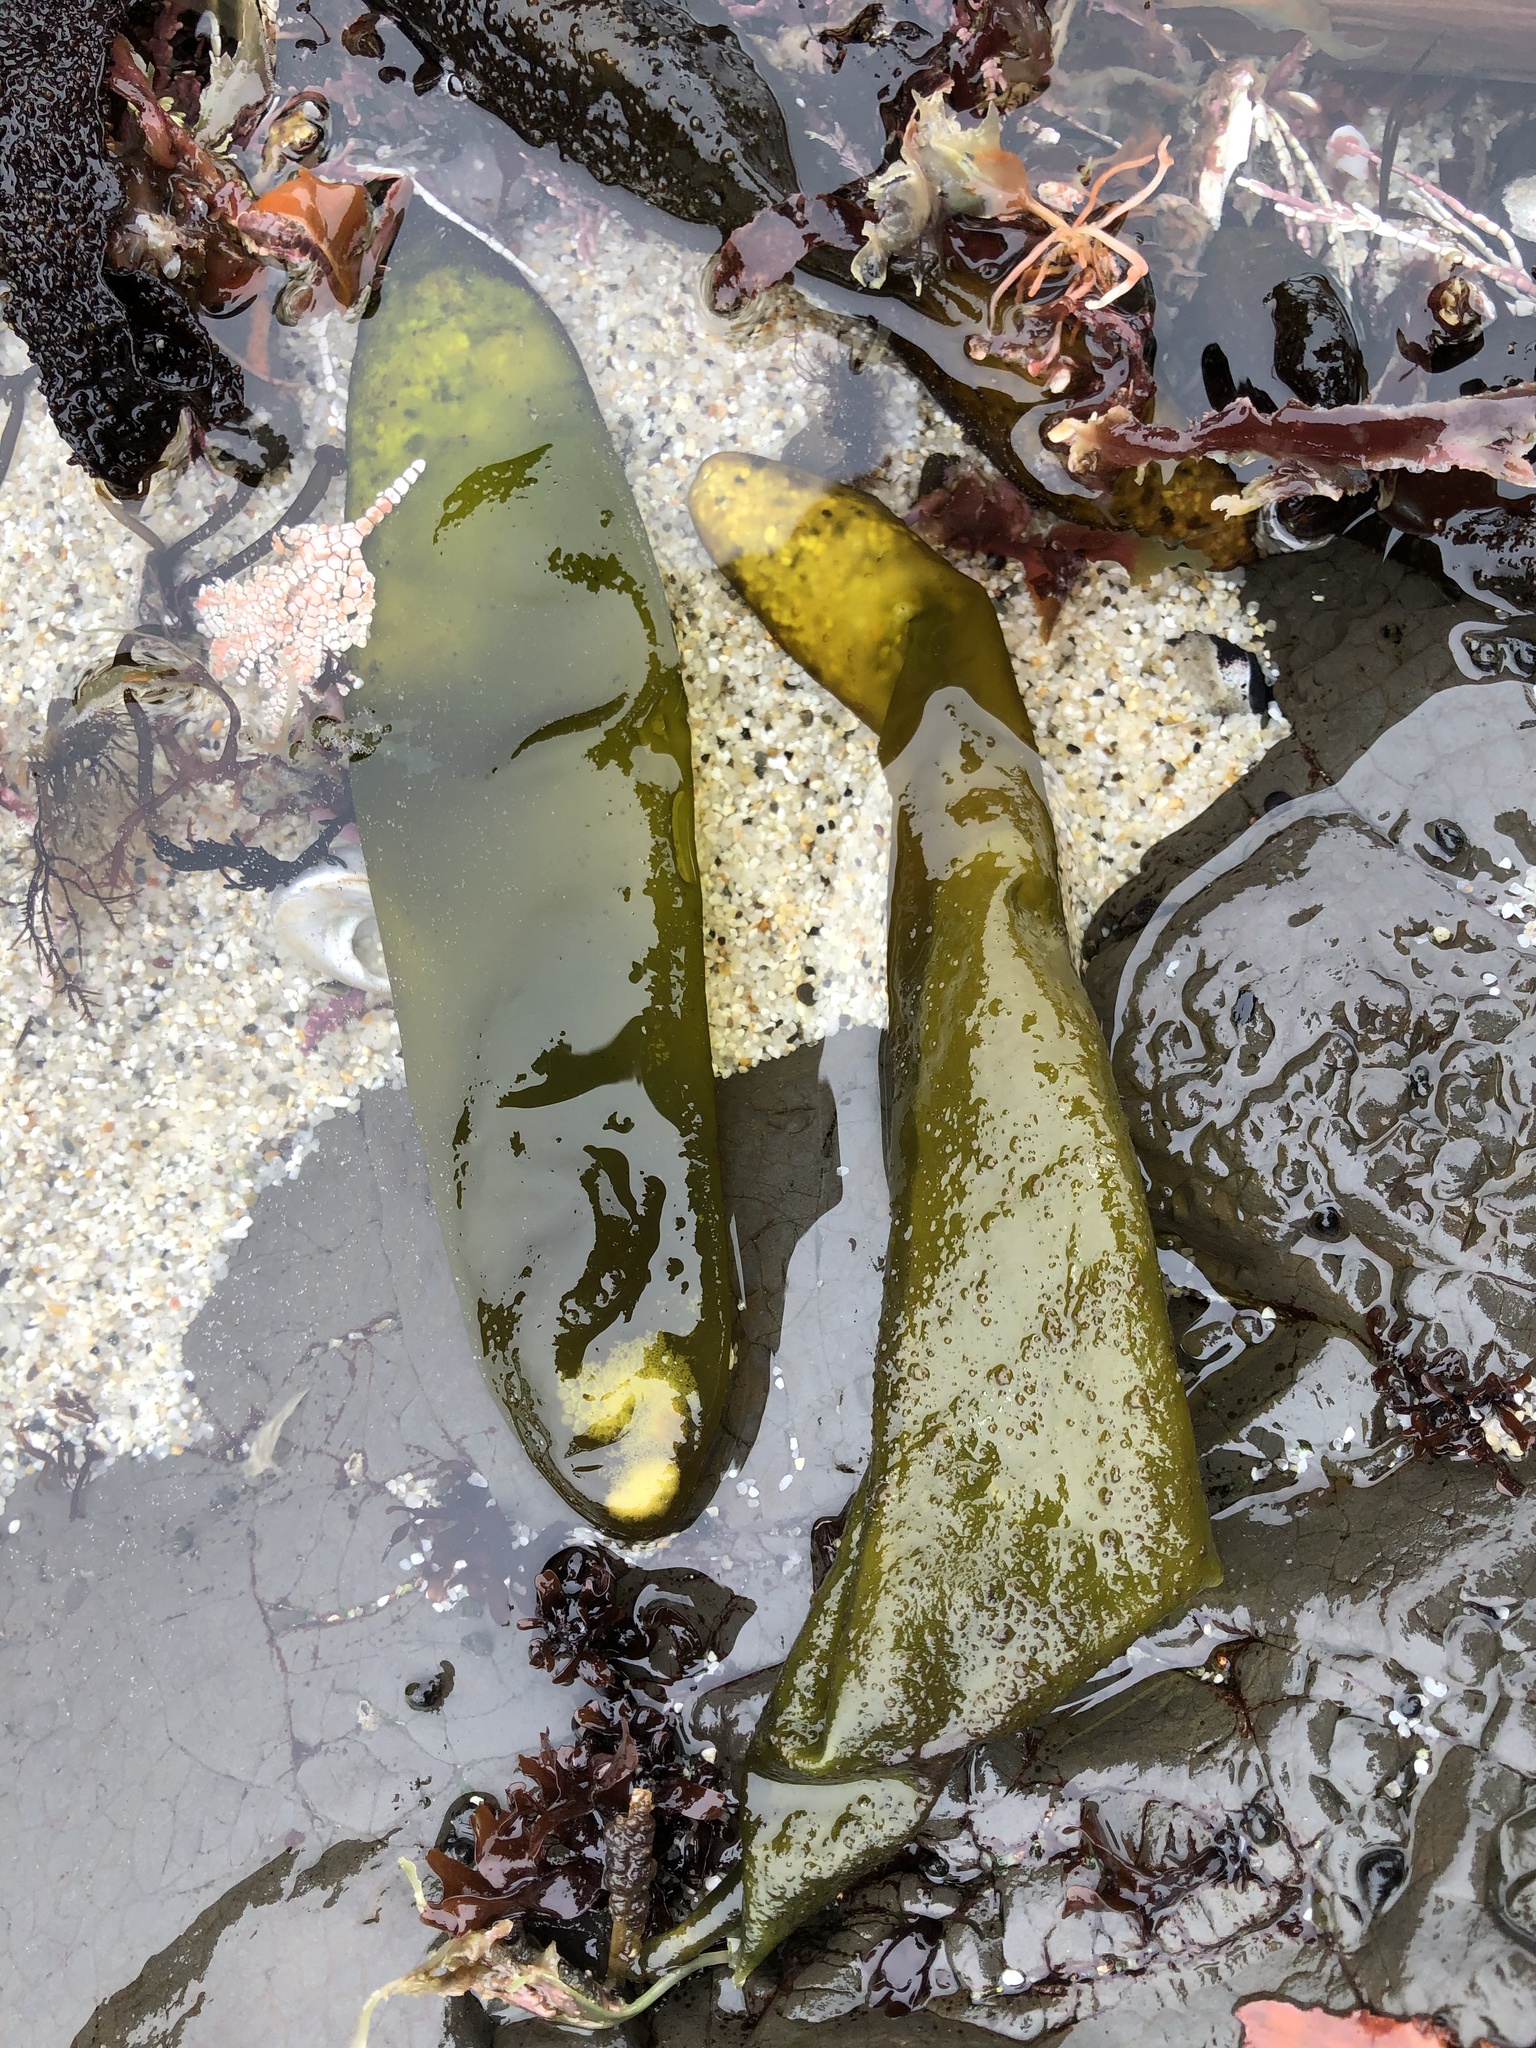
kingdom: Plantae
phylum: Rhodophyta
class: Florideophyceae
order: Palmariales
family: Palmariaceae
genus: Halosaccion
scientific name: Halosaccion glandiforme
